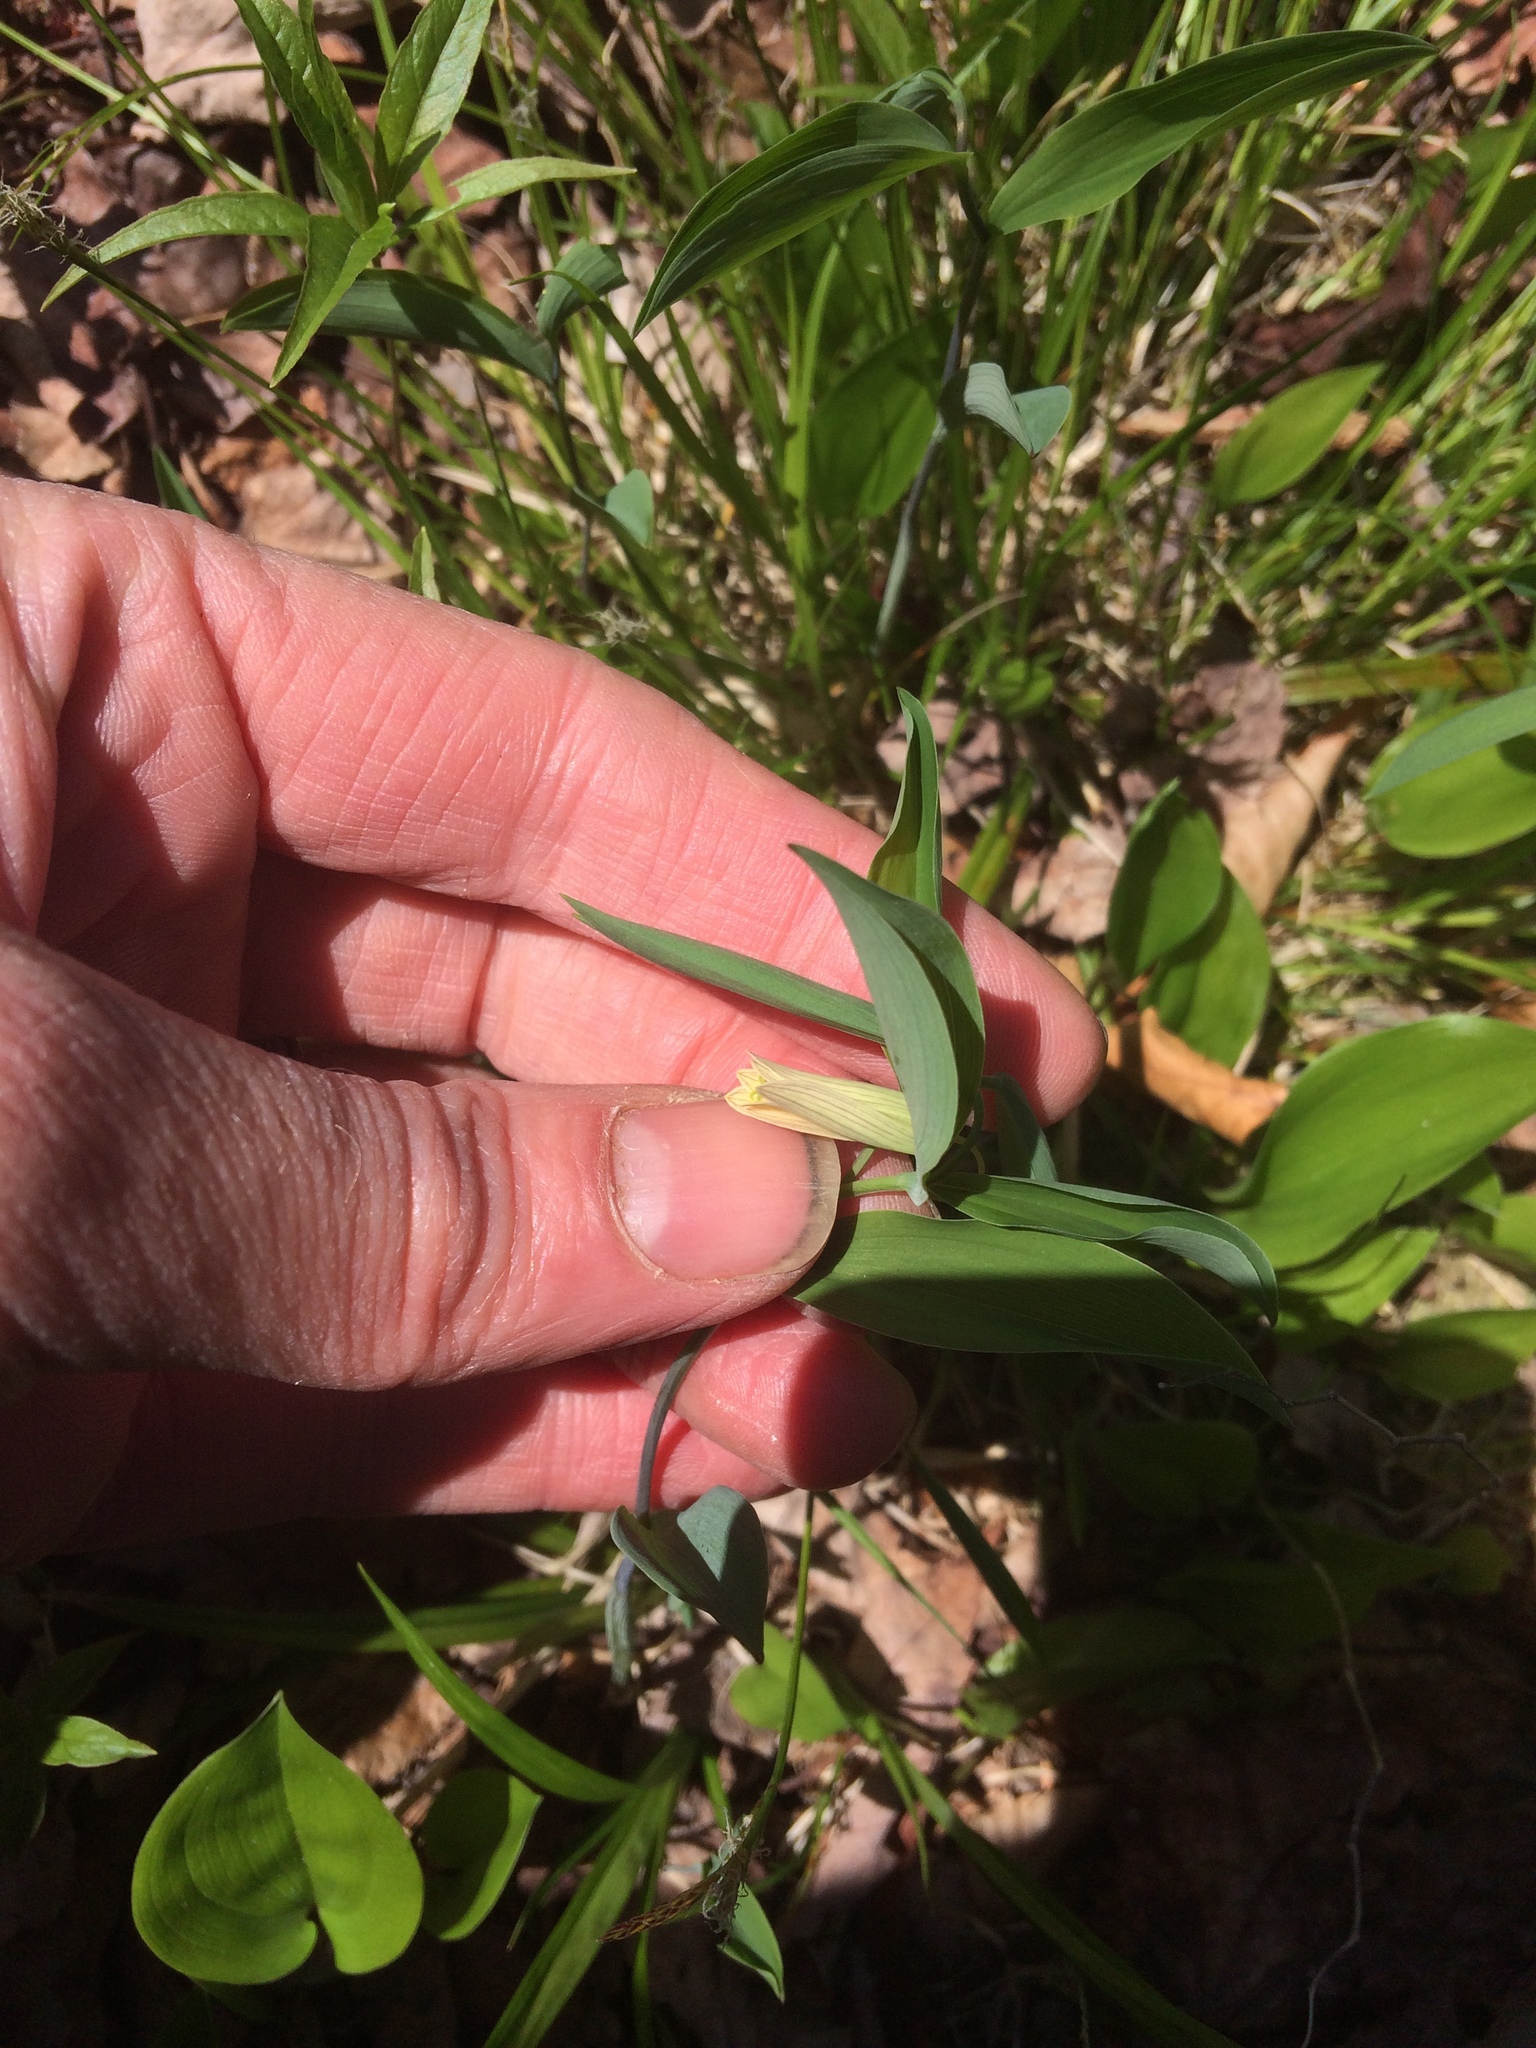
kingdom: Plantae
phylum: Tracheophyta
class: Liliopsida
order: Liliales
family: Colchicaceae
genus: Uvularia
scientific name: Uvularia sessilifolia
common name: Straw-lily
